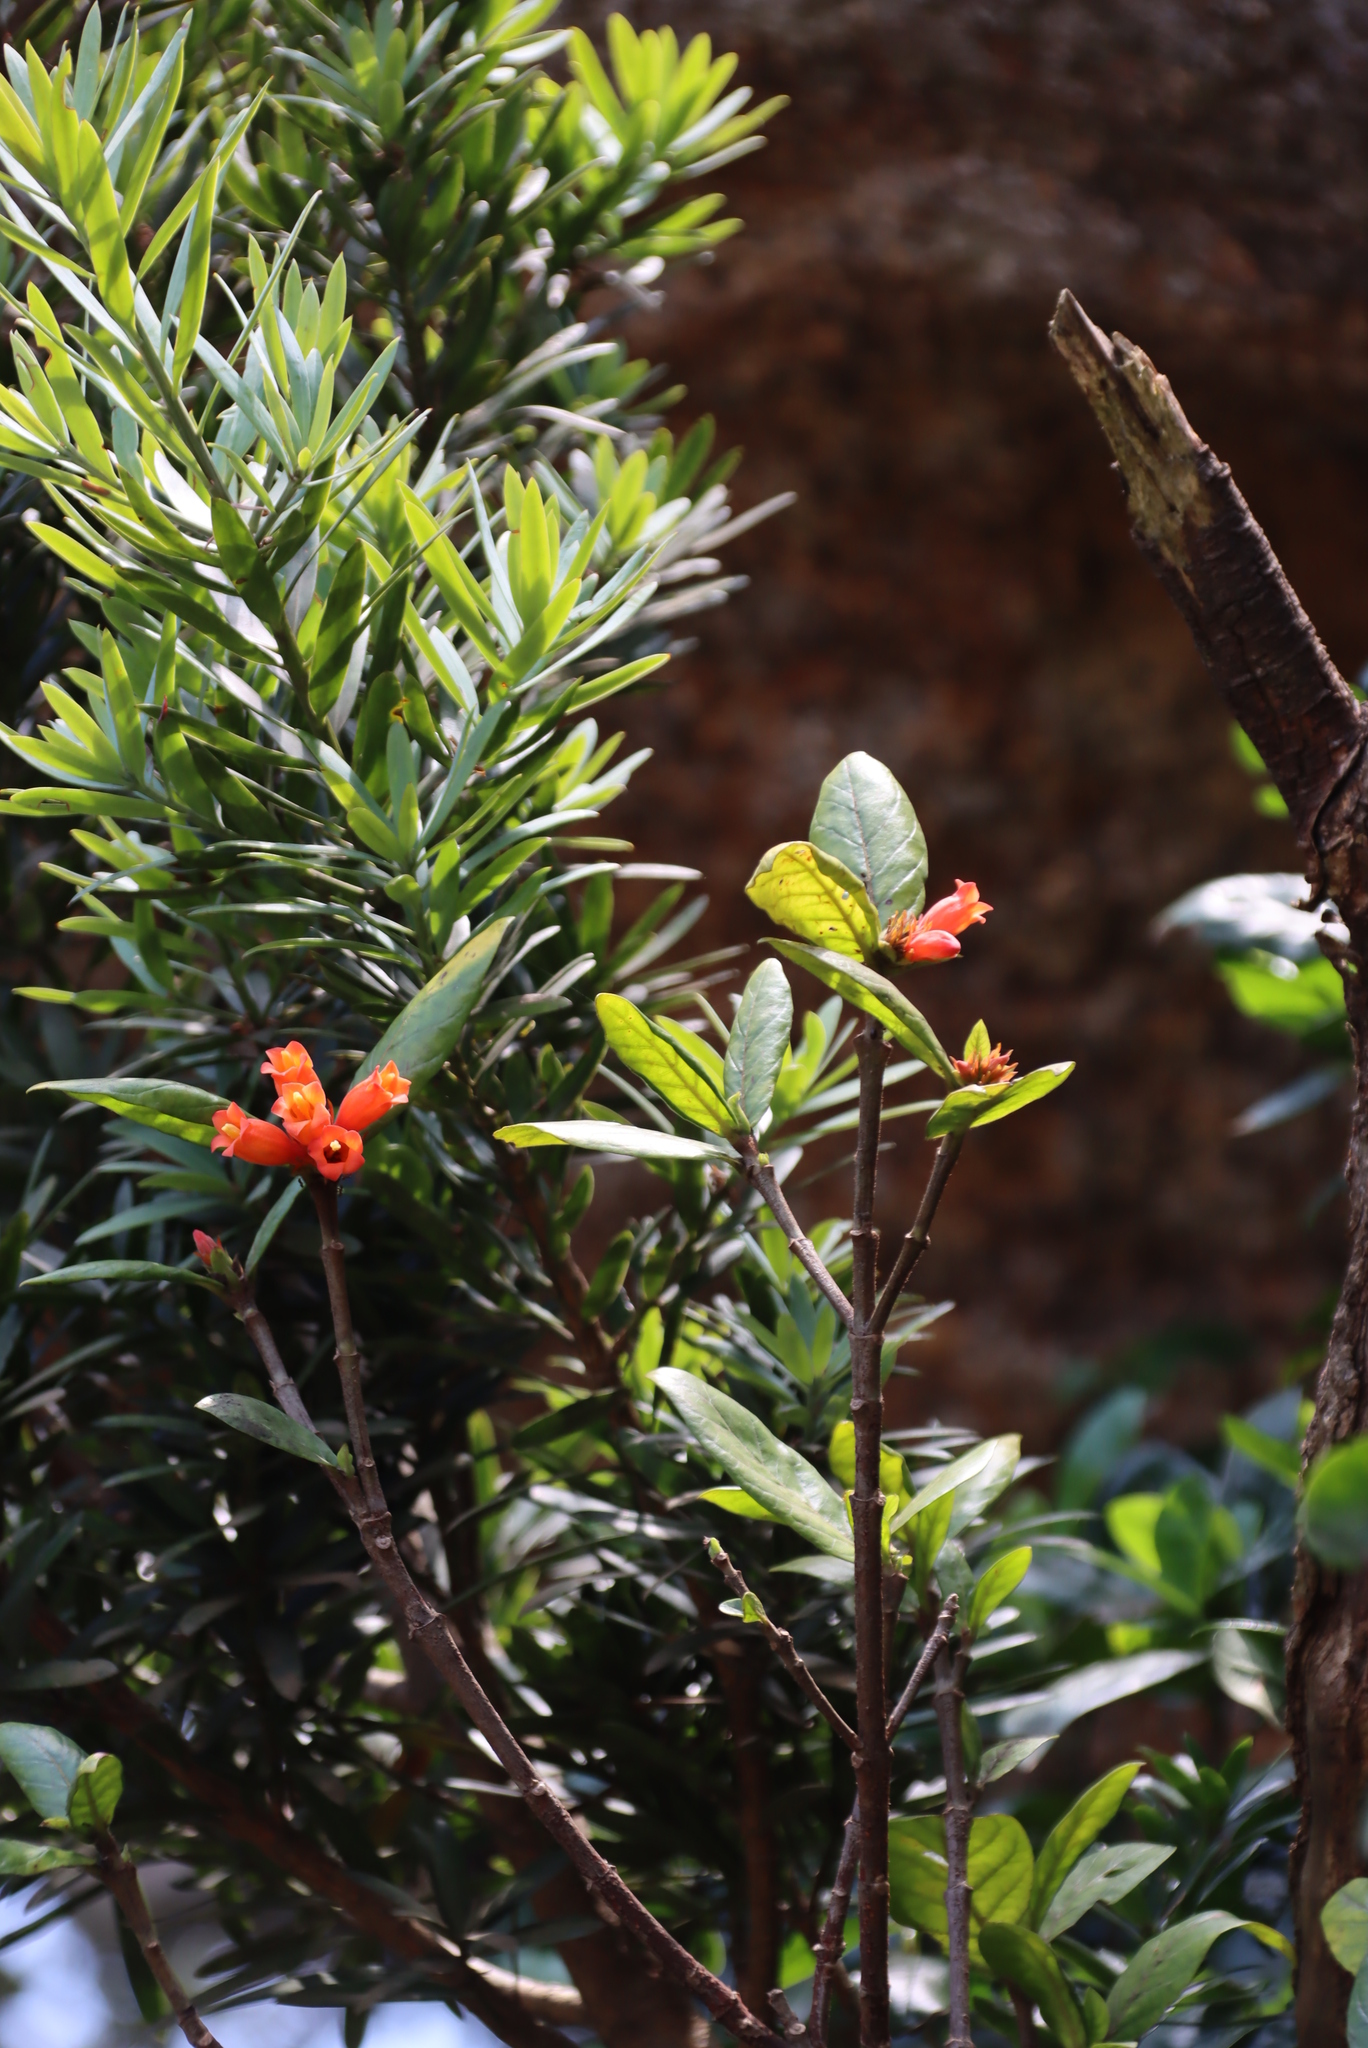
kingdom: Plantae
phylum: Tracheophyta
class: Magnoliopsida
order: Gentianales
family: Rubiaceae
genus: Burchellia
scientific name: Burchellia bubalina
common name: Wild pomegranate
